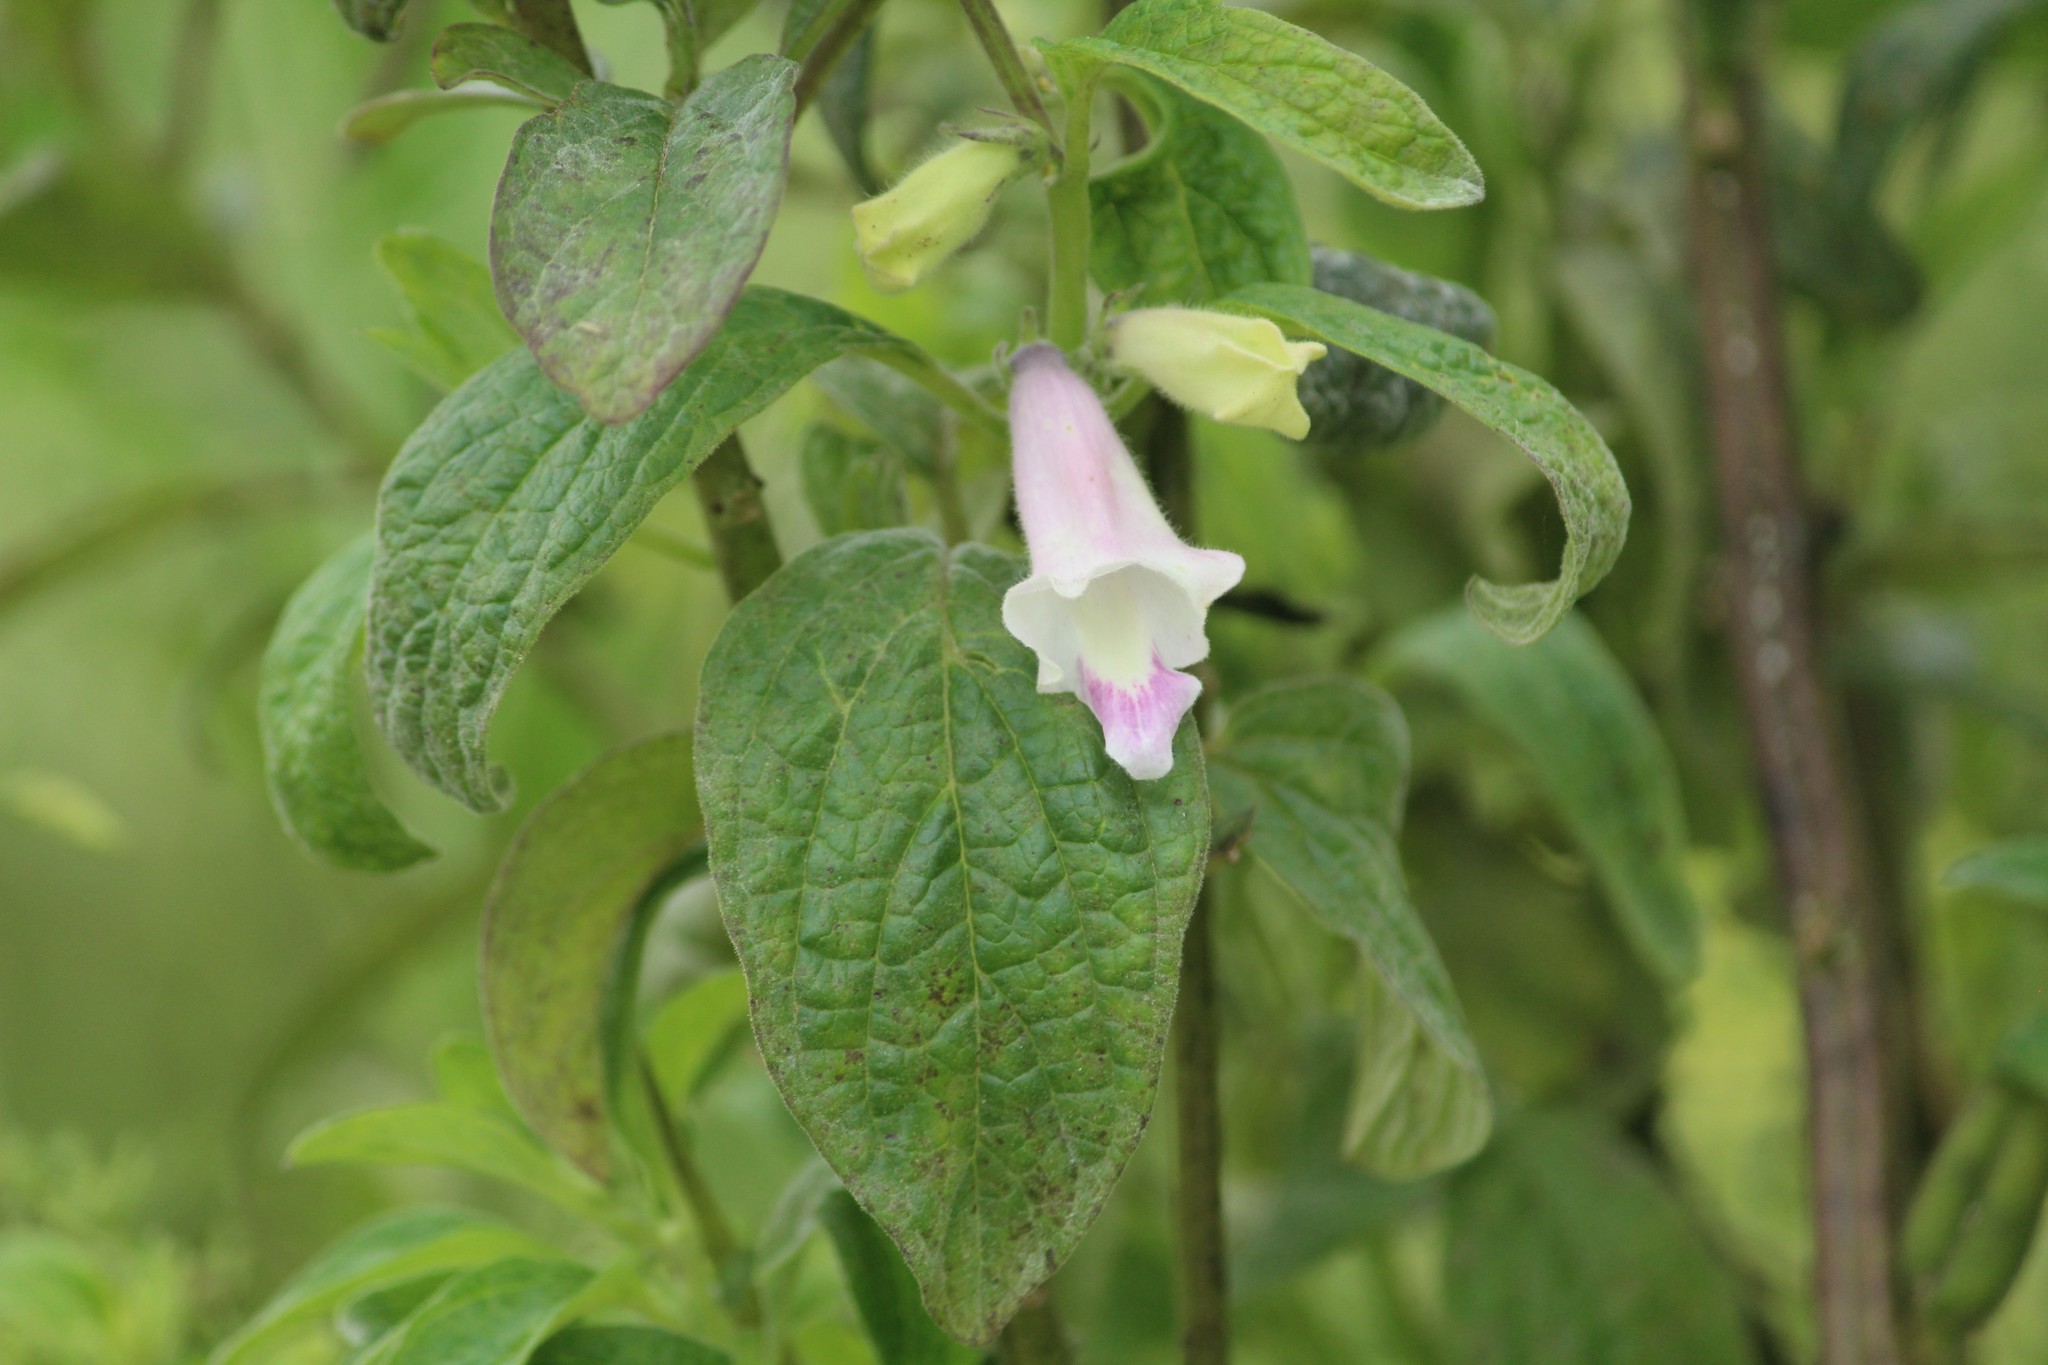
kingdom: Plantae
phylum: Tracheophyta
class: Magnoliopsida
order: Lamiales
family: Pedaliaceae
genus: Sesamum
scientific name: Sesamum indicum
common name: Sesame
